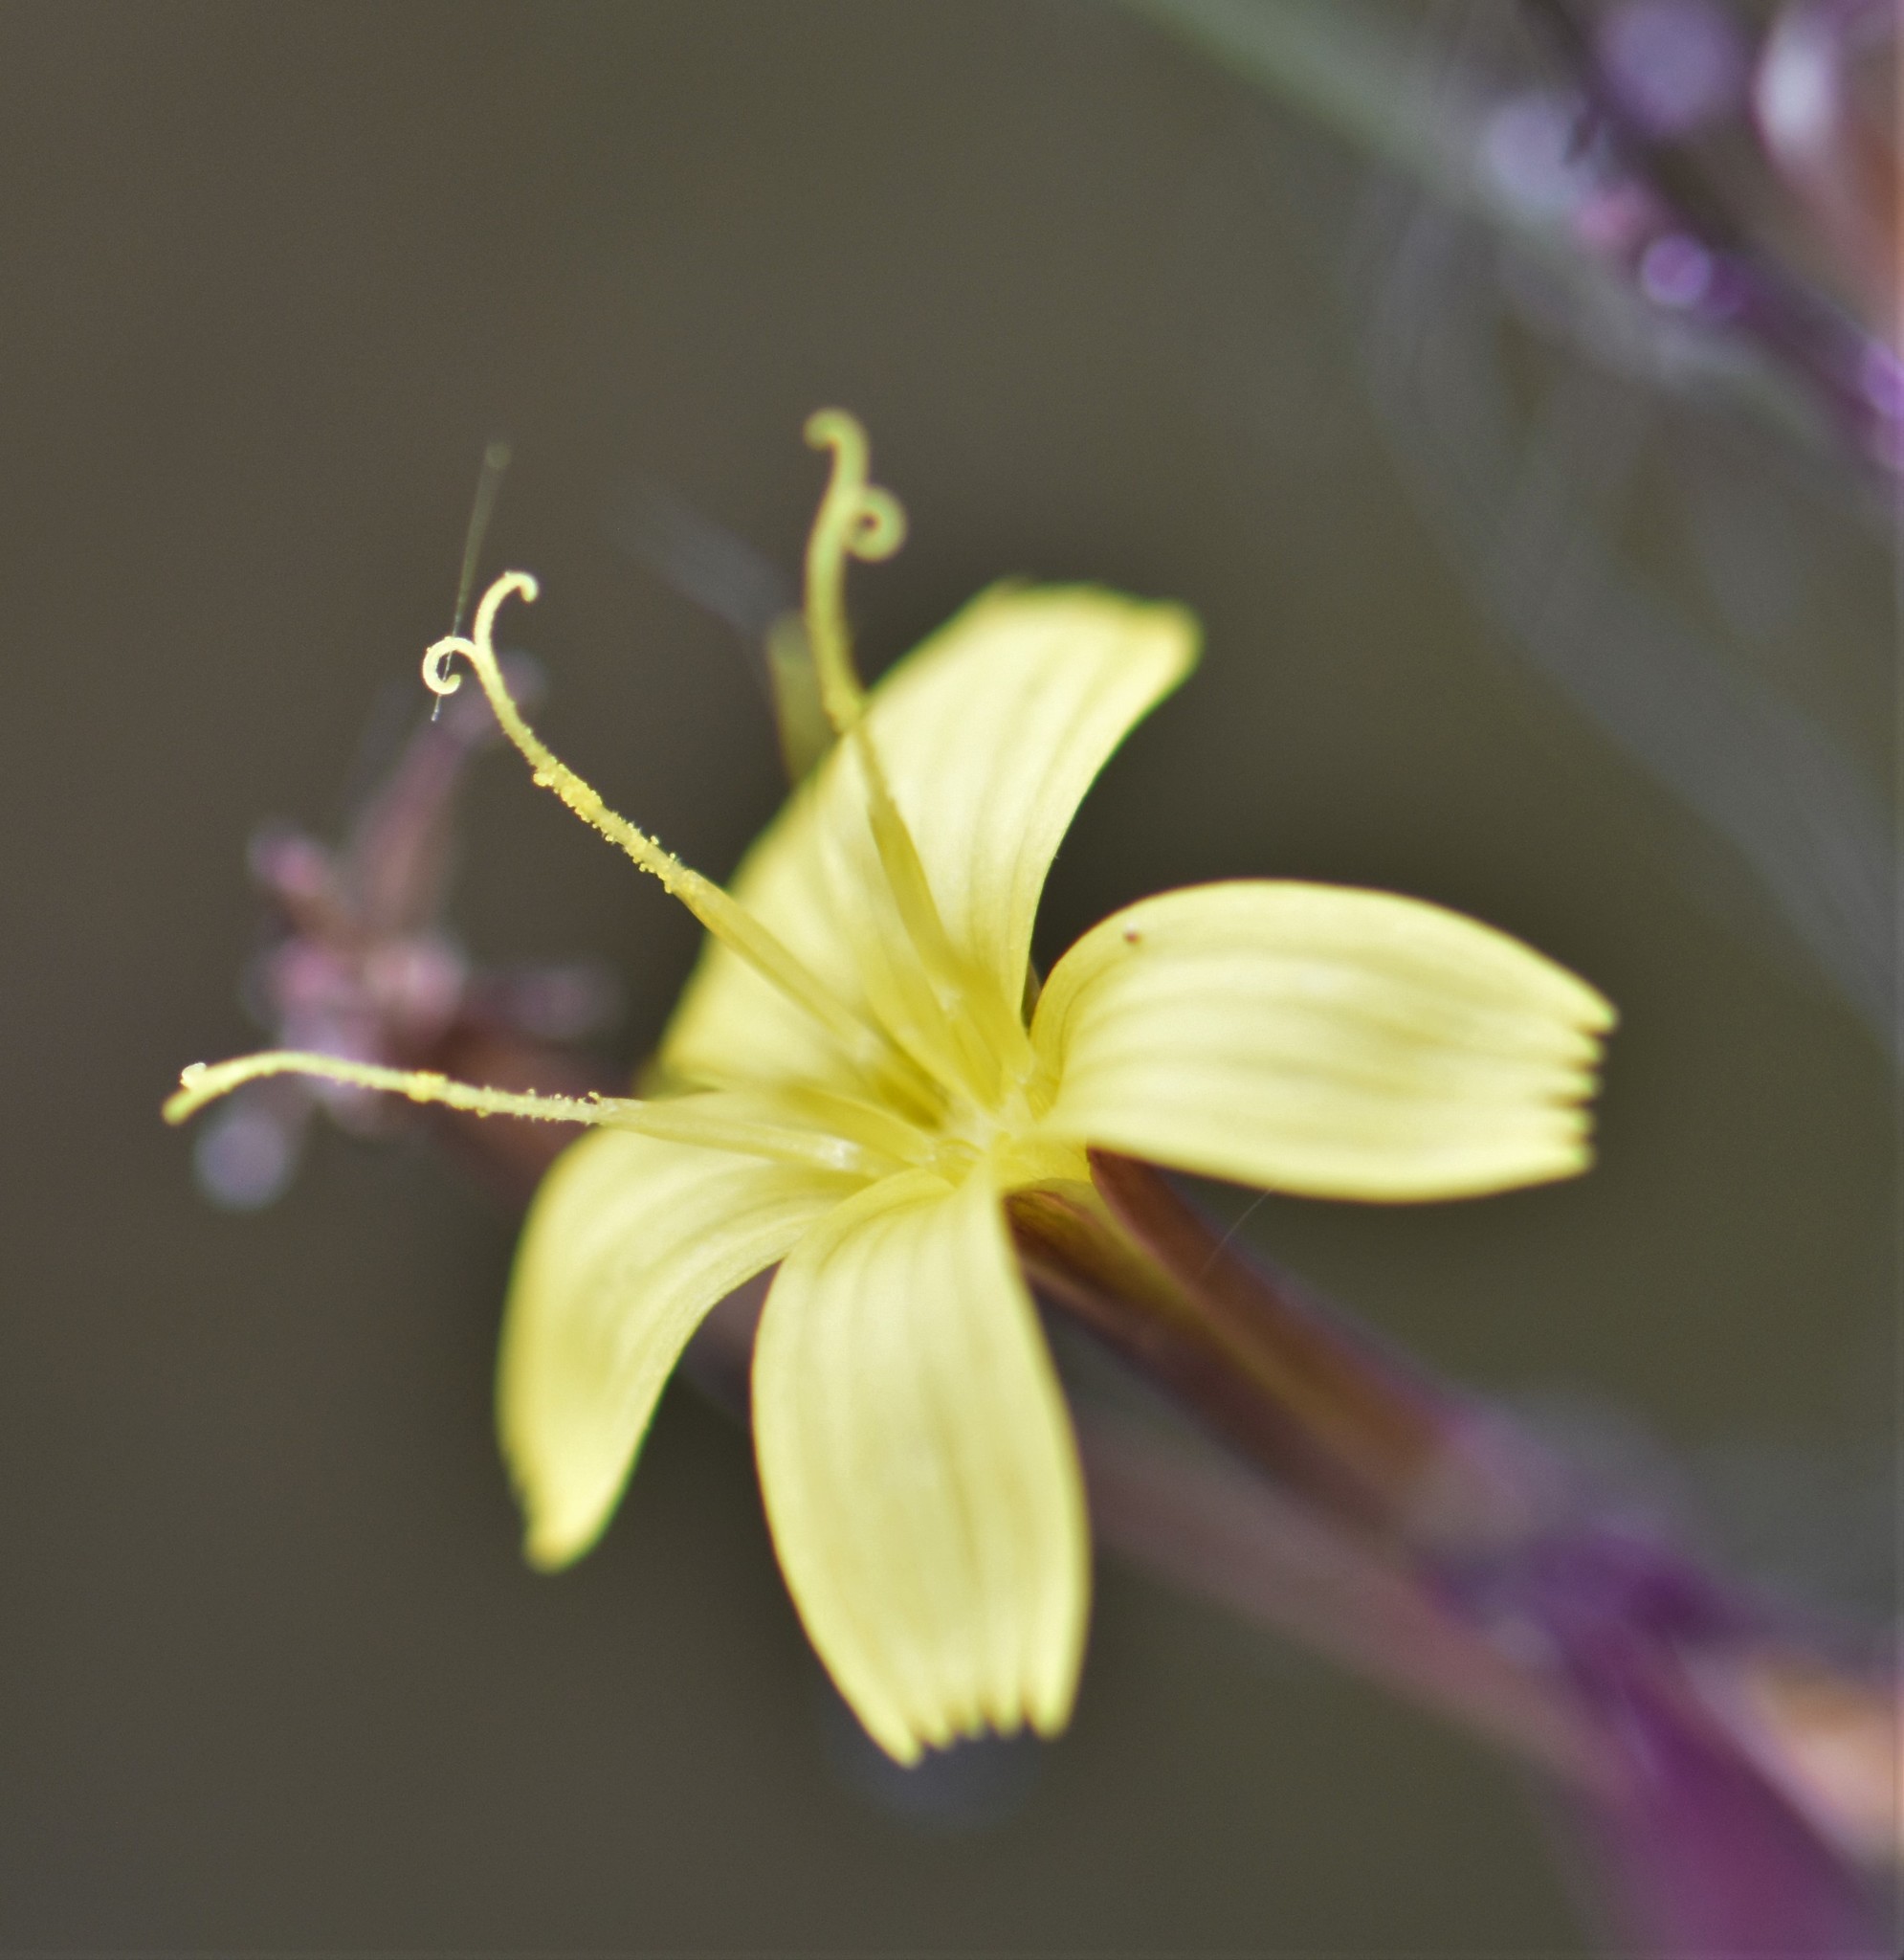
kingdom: Plantae
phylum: Tracheophyta
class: Magnoliopsida
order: Asterales
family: Asteraceae
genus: Mycelis
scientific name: Mycelis muralis
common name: Wall lettuce
